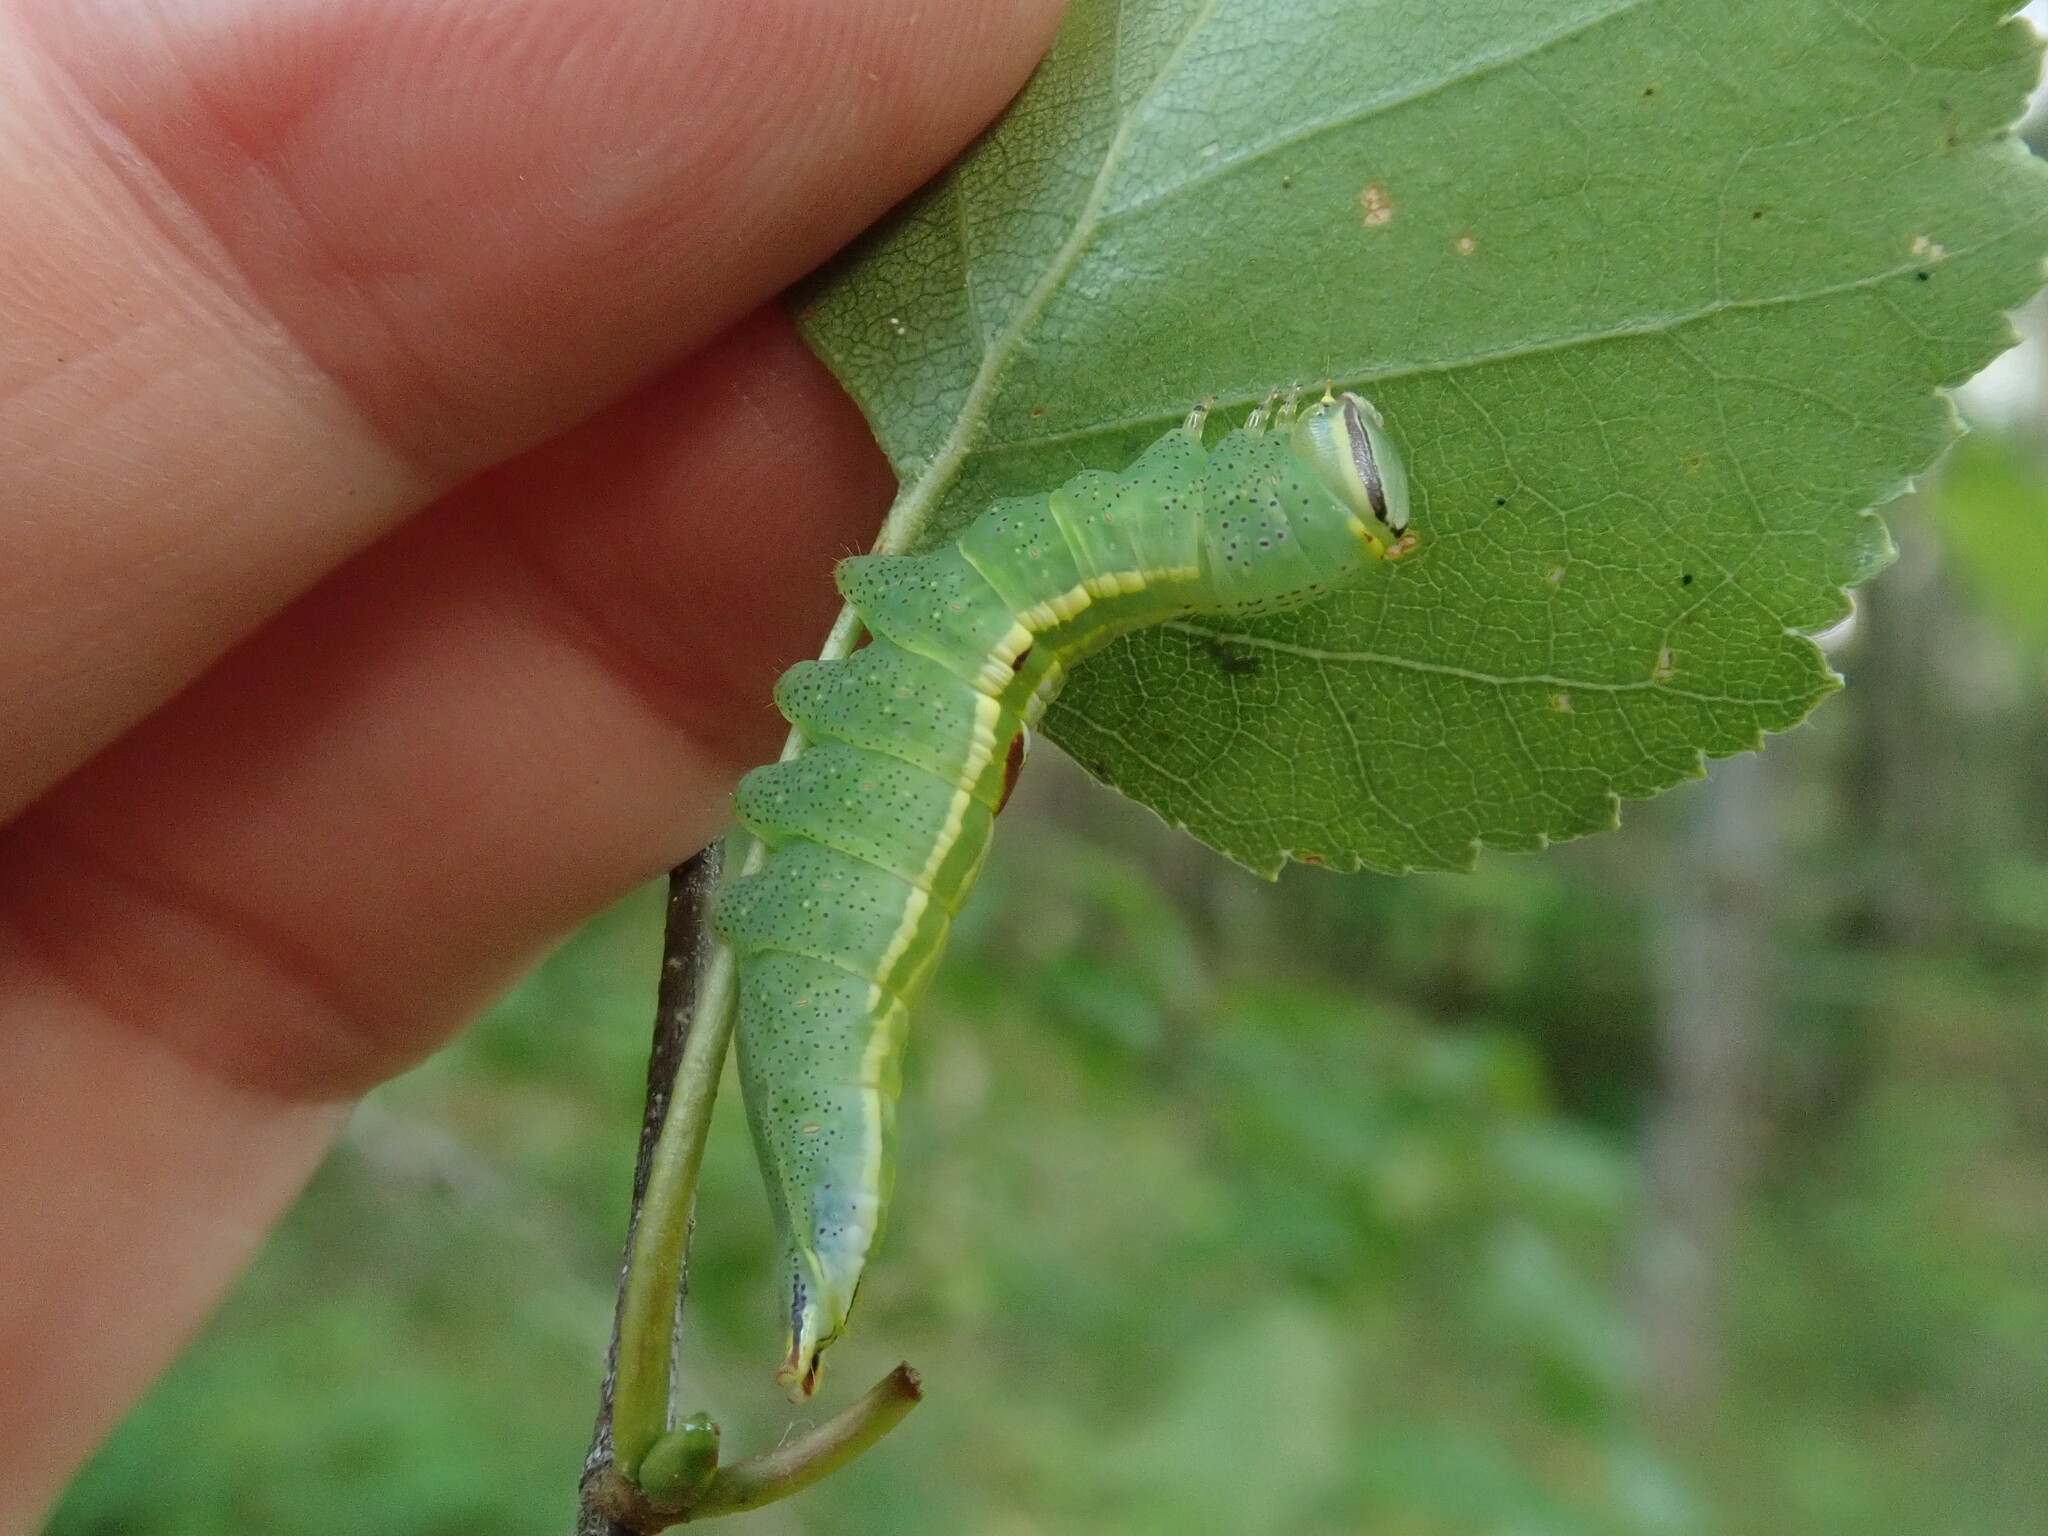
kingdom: Animalia
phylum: Arthropoda
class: Insecta
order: Lepidoptera
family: Notodontidae
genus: Disphragis
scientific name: Disphragis Cecrita guttivitta
